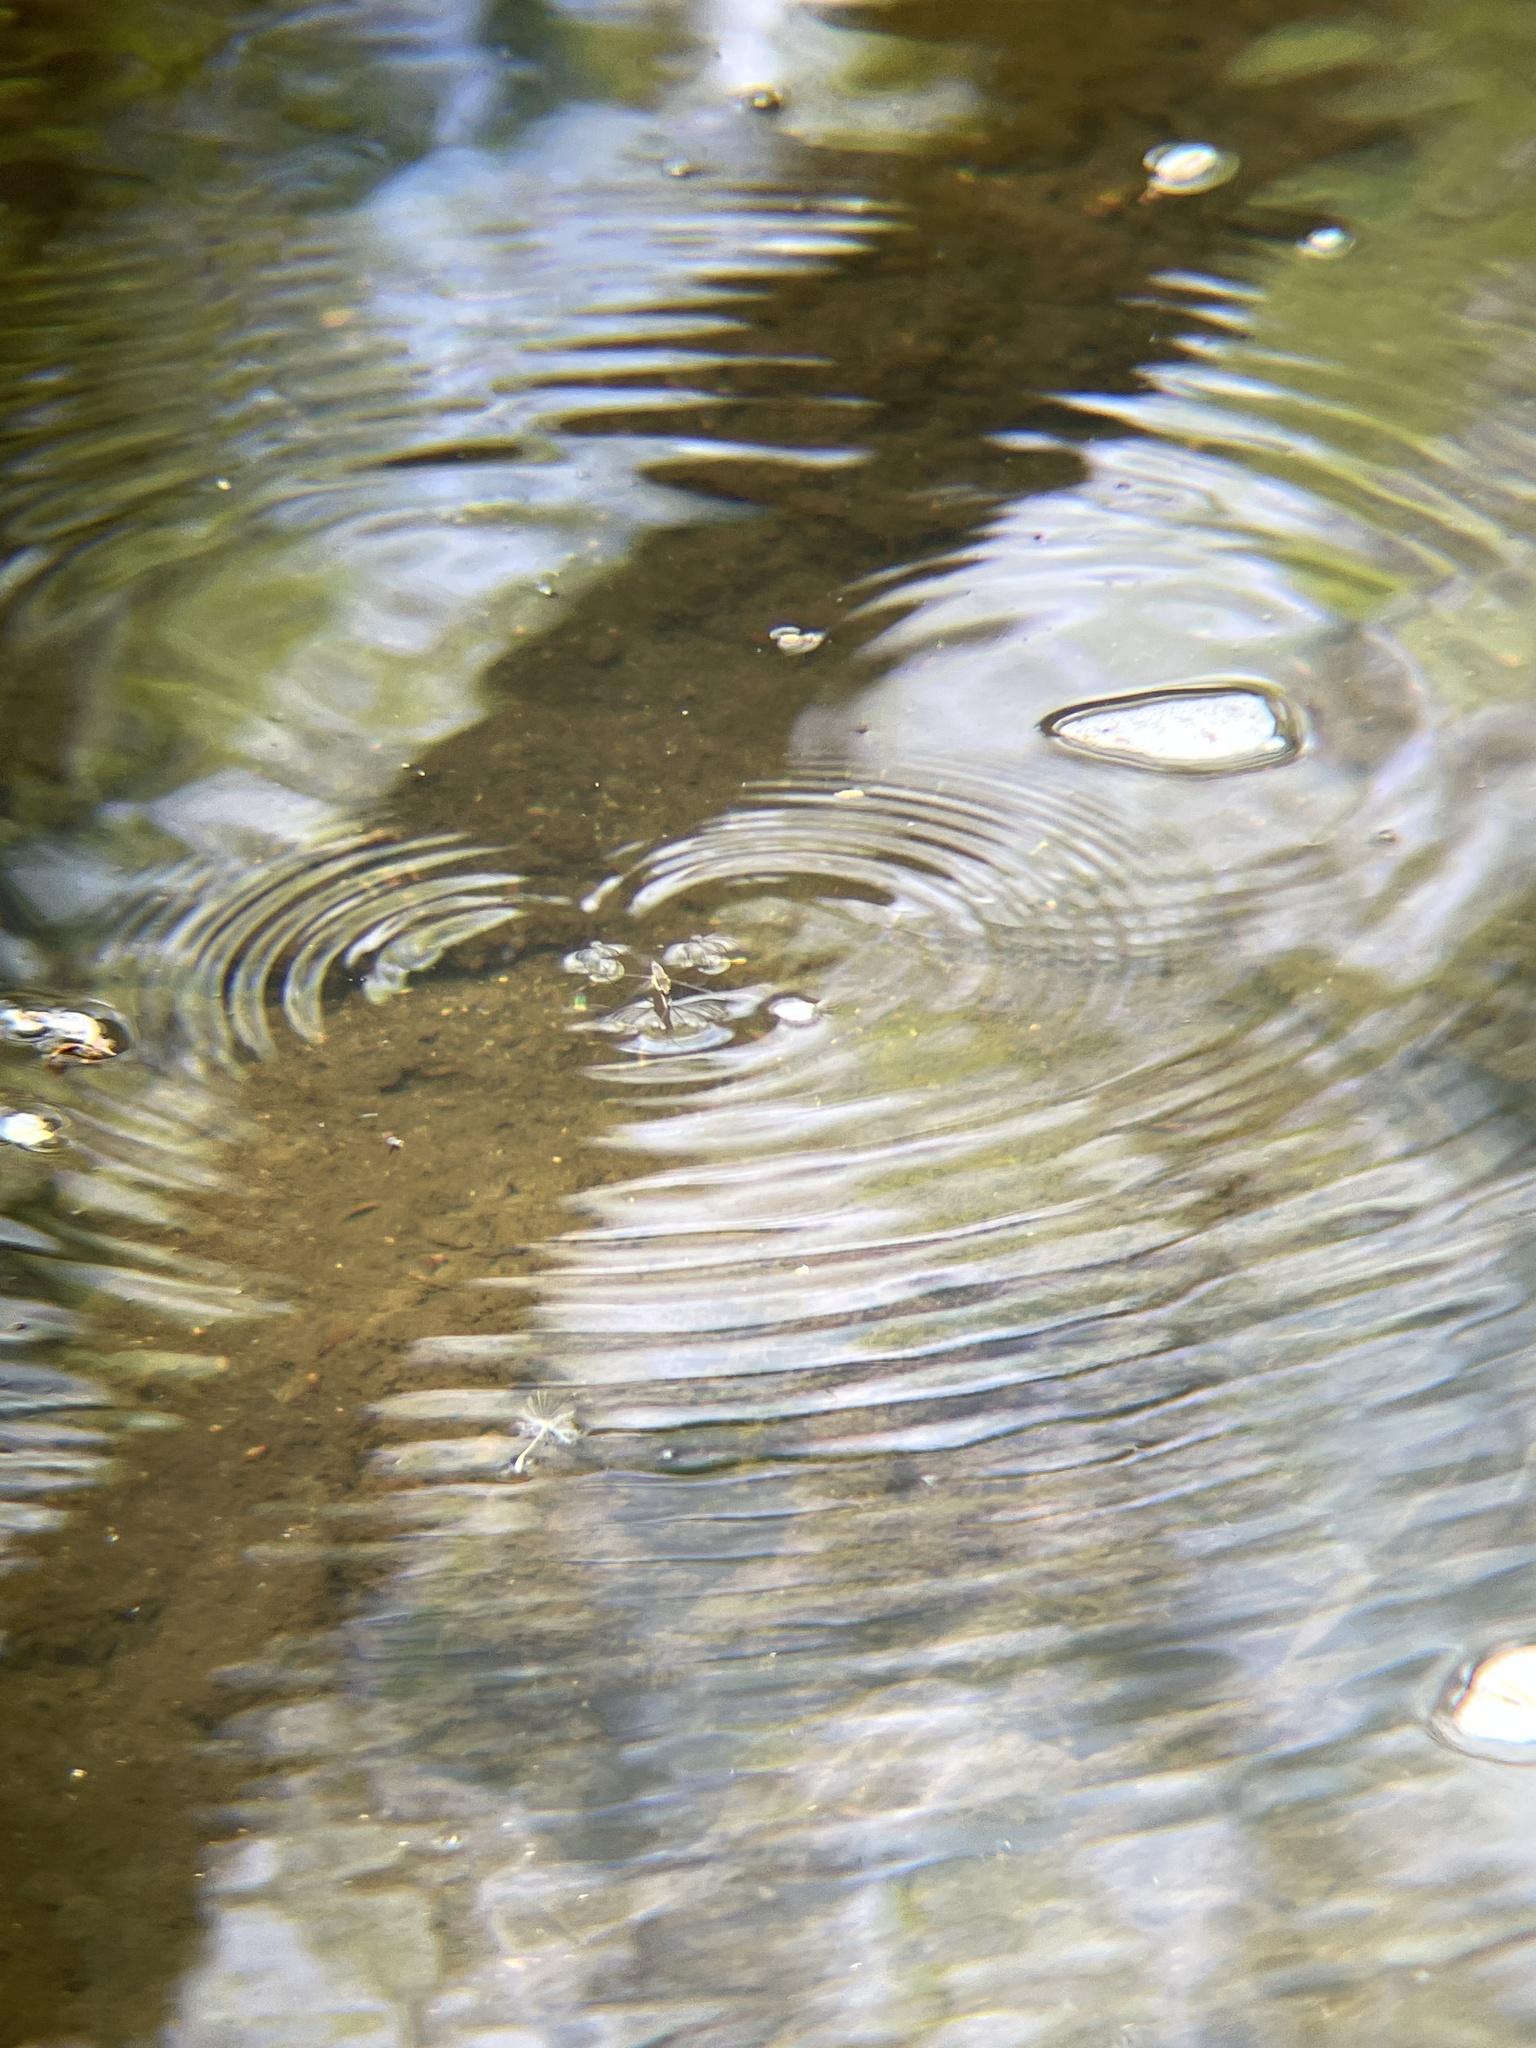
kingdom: Animalia
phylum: Arthropoda
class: Insecta
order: Hemiptera
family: Gerridae
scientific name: Gerridae
